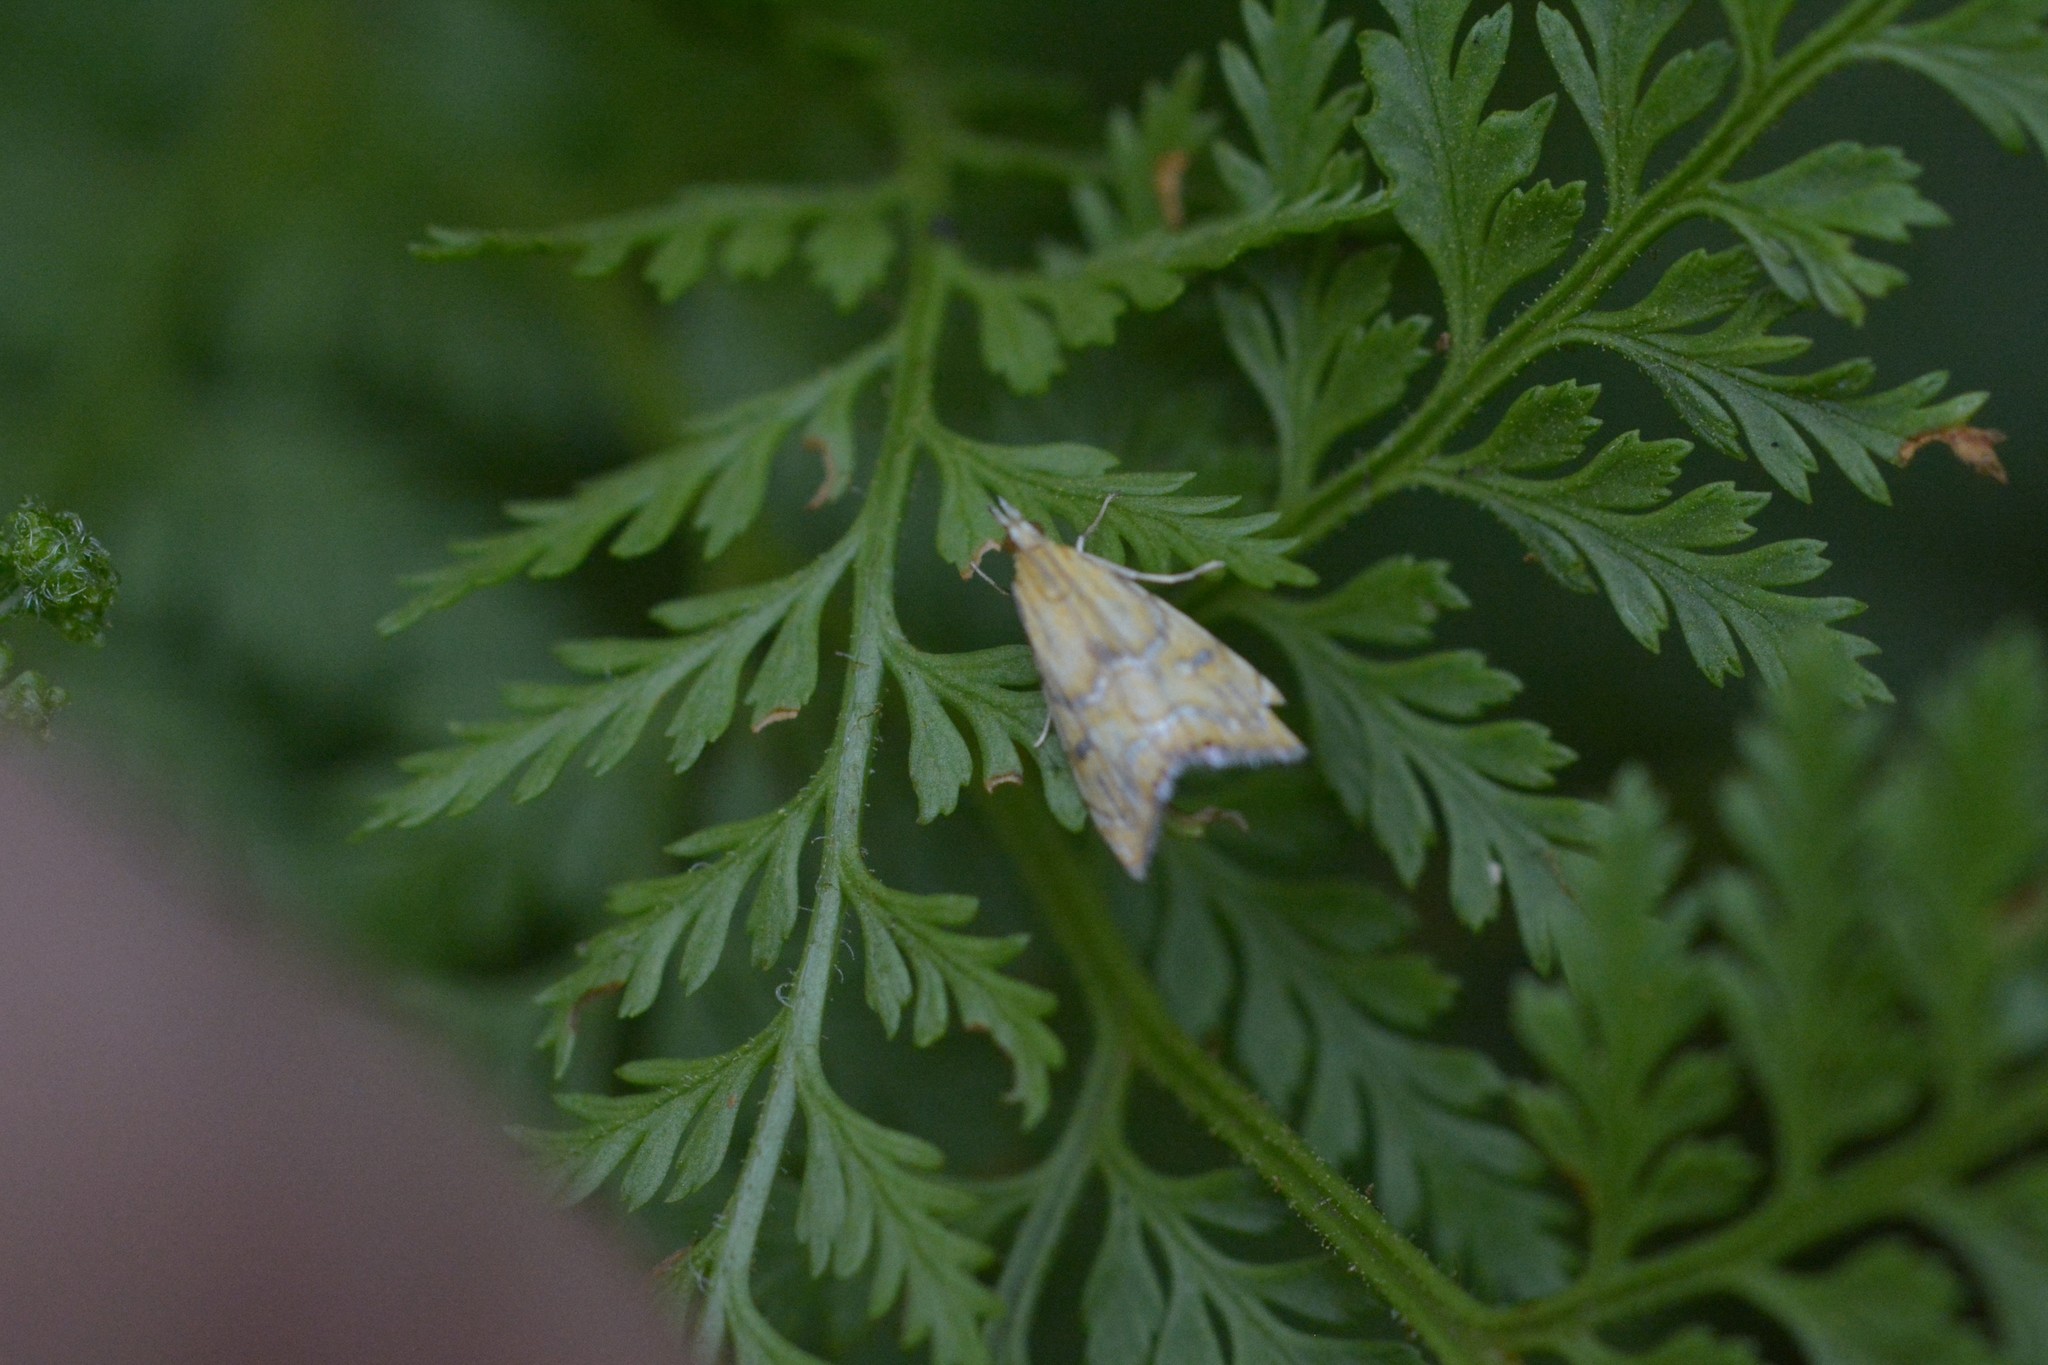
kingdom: Animalia
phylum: Arthropoda
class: Insecta
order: Lepidoptera
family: Crambidae
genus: Glaucocharis
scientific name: Glaucocharis auriscriptella
